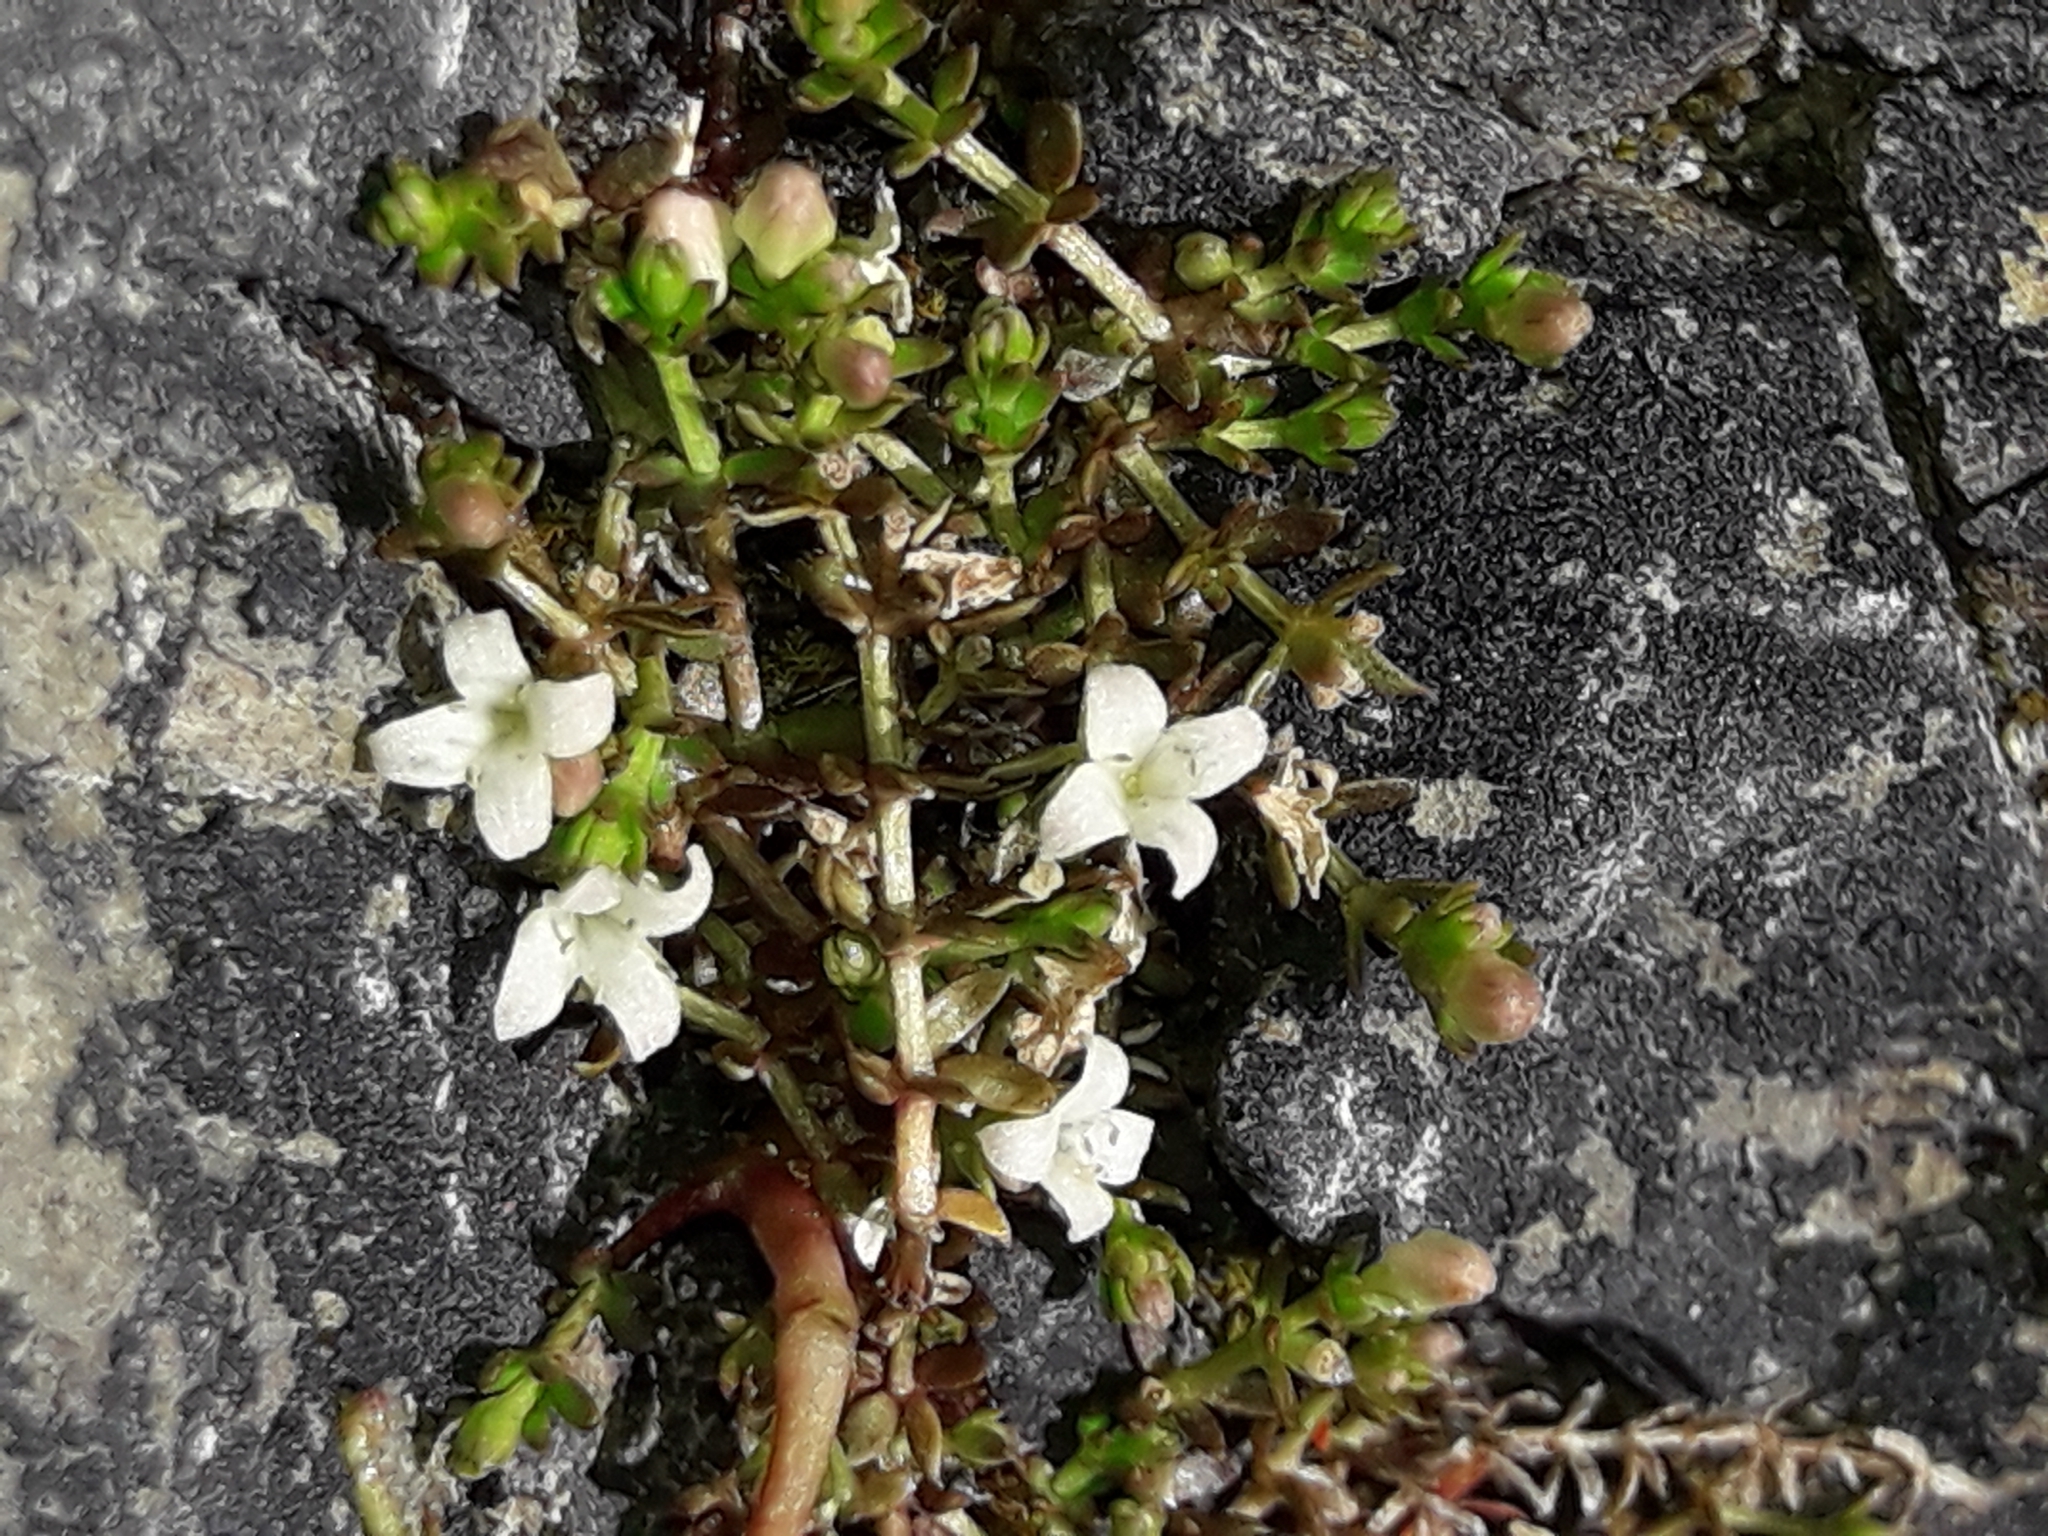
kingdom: Plantae
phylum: Tracheophyta
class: Magnoliopsida
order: Gentianales
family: Rubiaceae
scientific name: Rubiaceae
